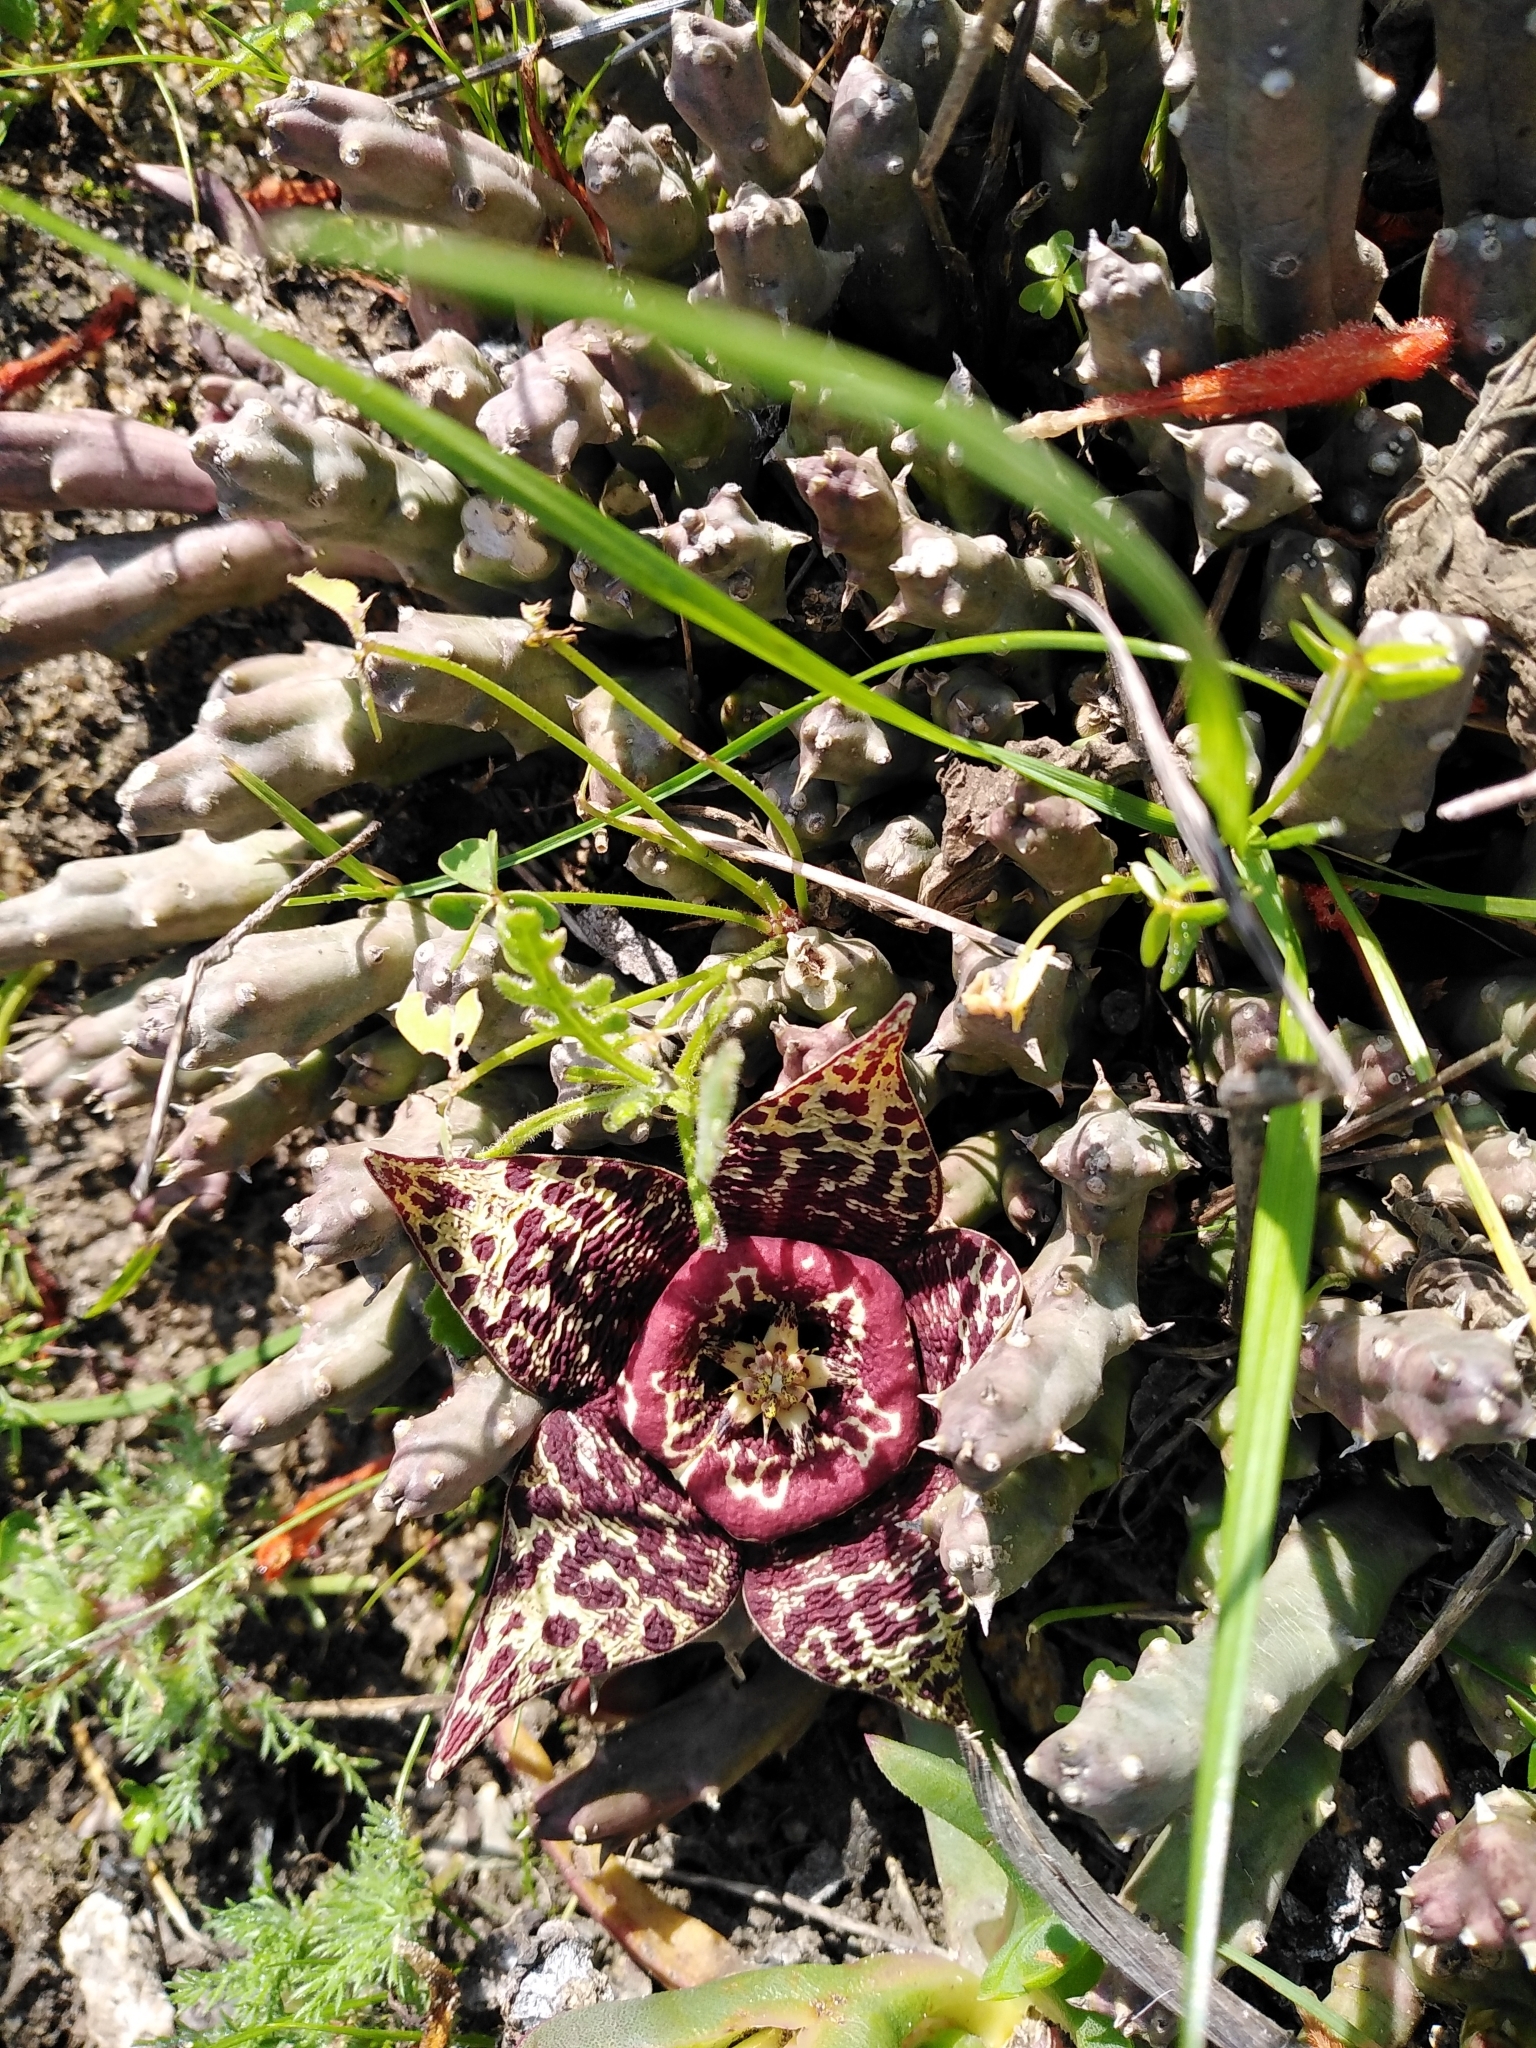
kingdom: Plantae
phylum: Tracheophyta
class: Magnoliopsida
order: Gentianales
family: Apocynaceae
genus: Ceropegia
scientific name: Ceropegia mixta
